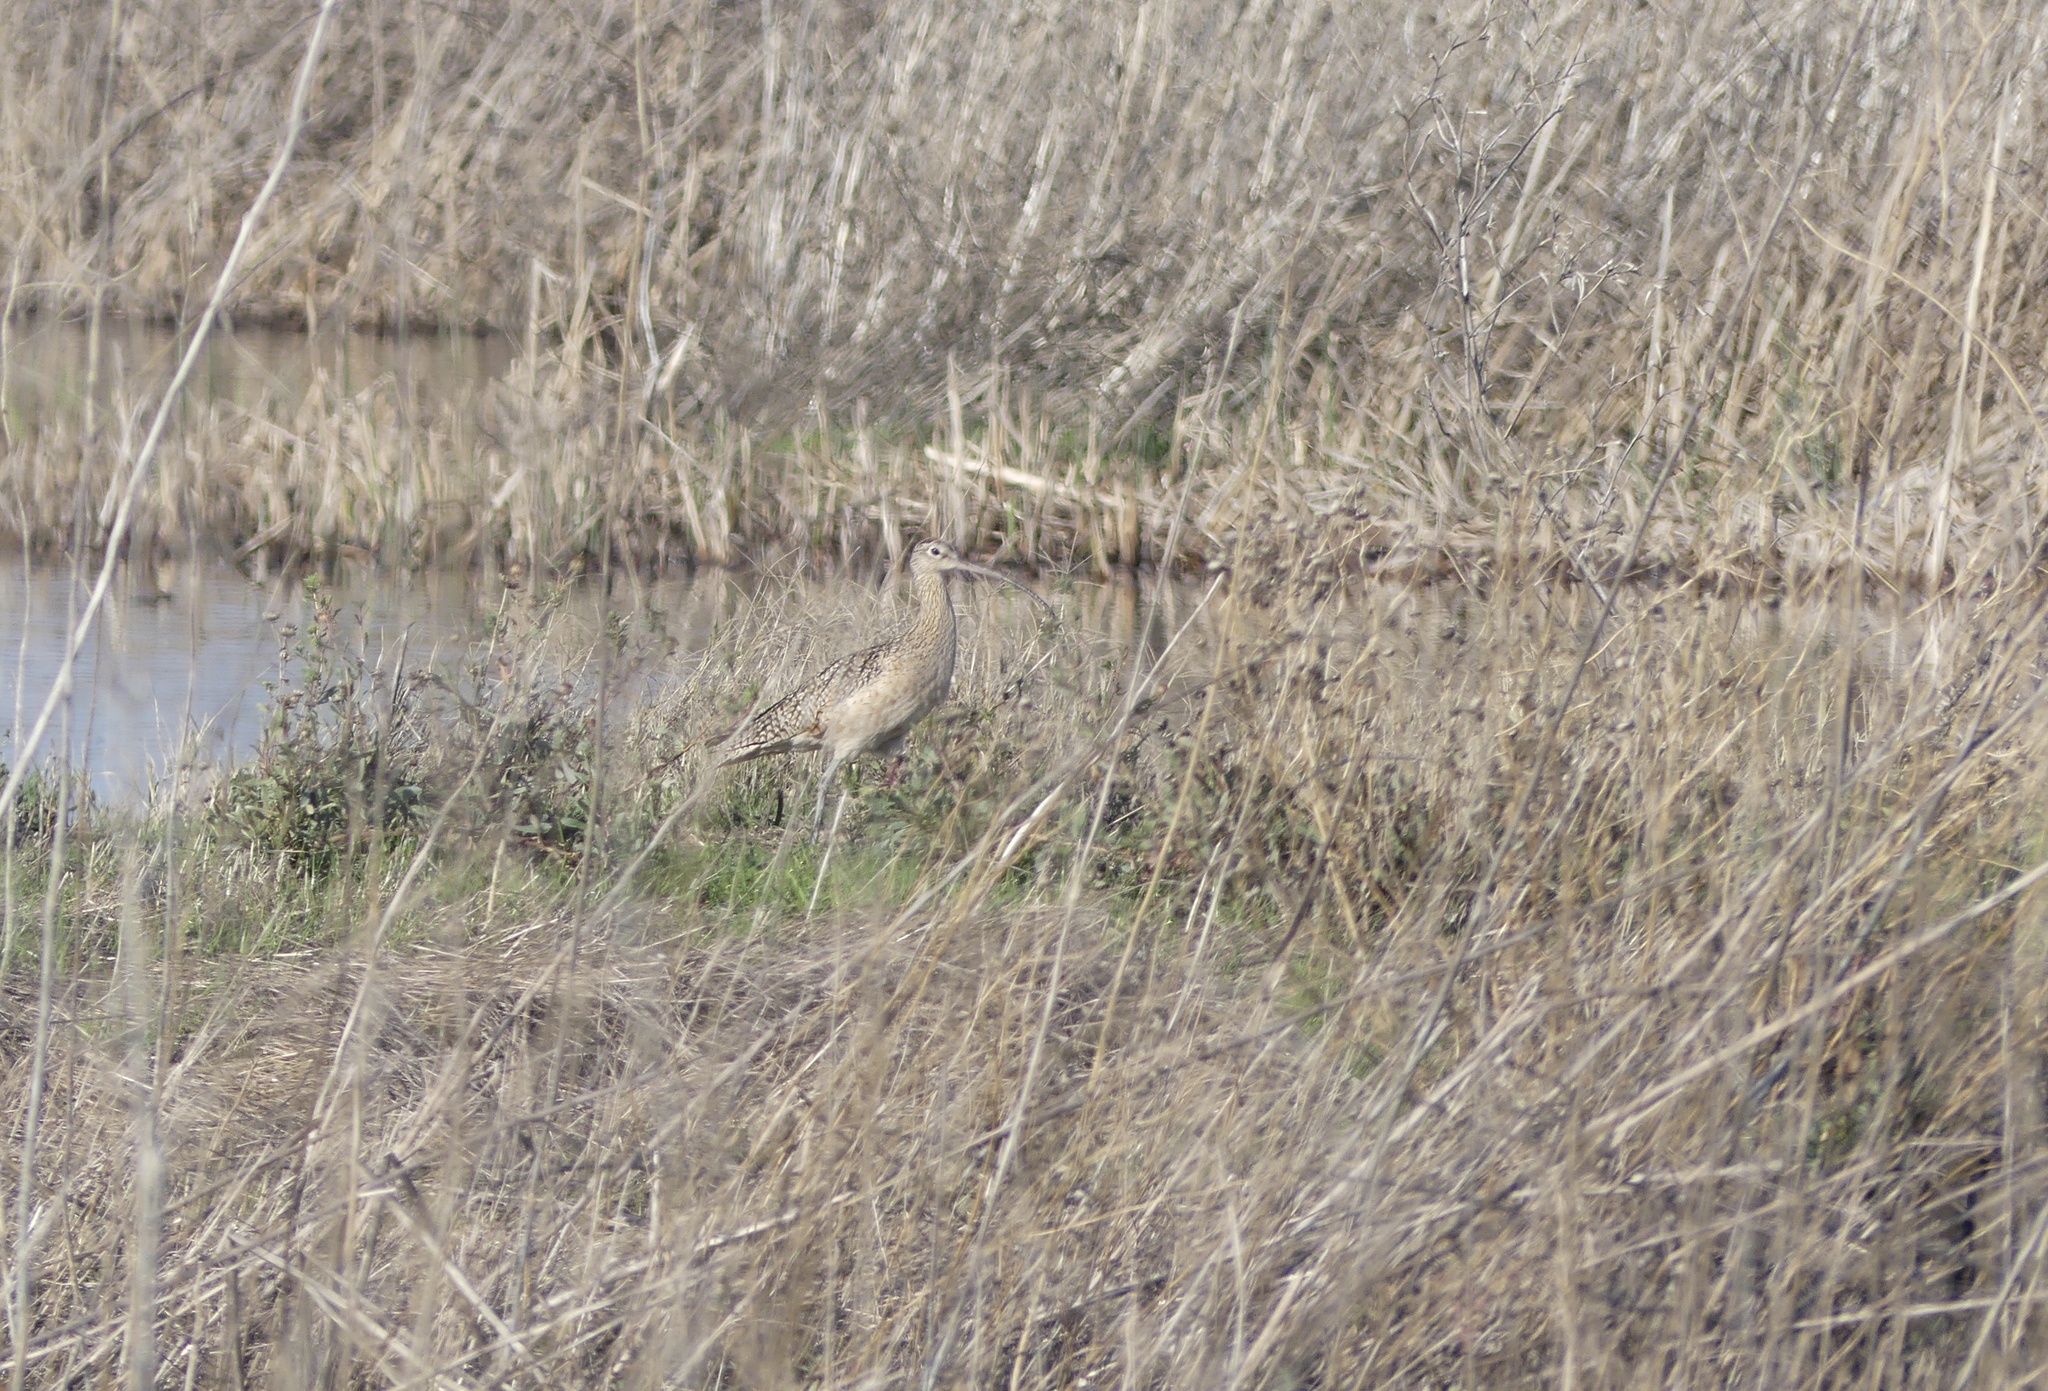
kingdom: Animalia
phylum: Chordata
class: Aves
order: Charadriiformes
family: Scolopacidae
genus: Numenius
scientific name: Numenius americanus
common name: Long-billed curlew
